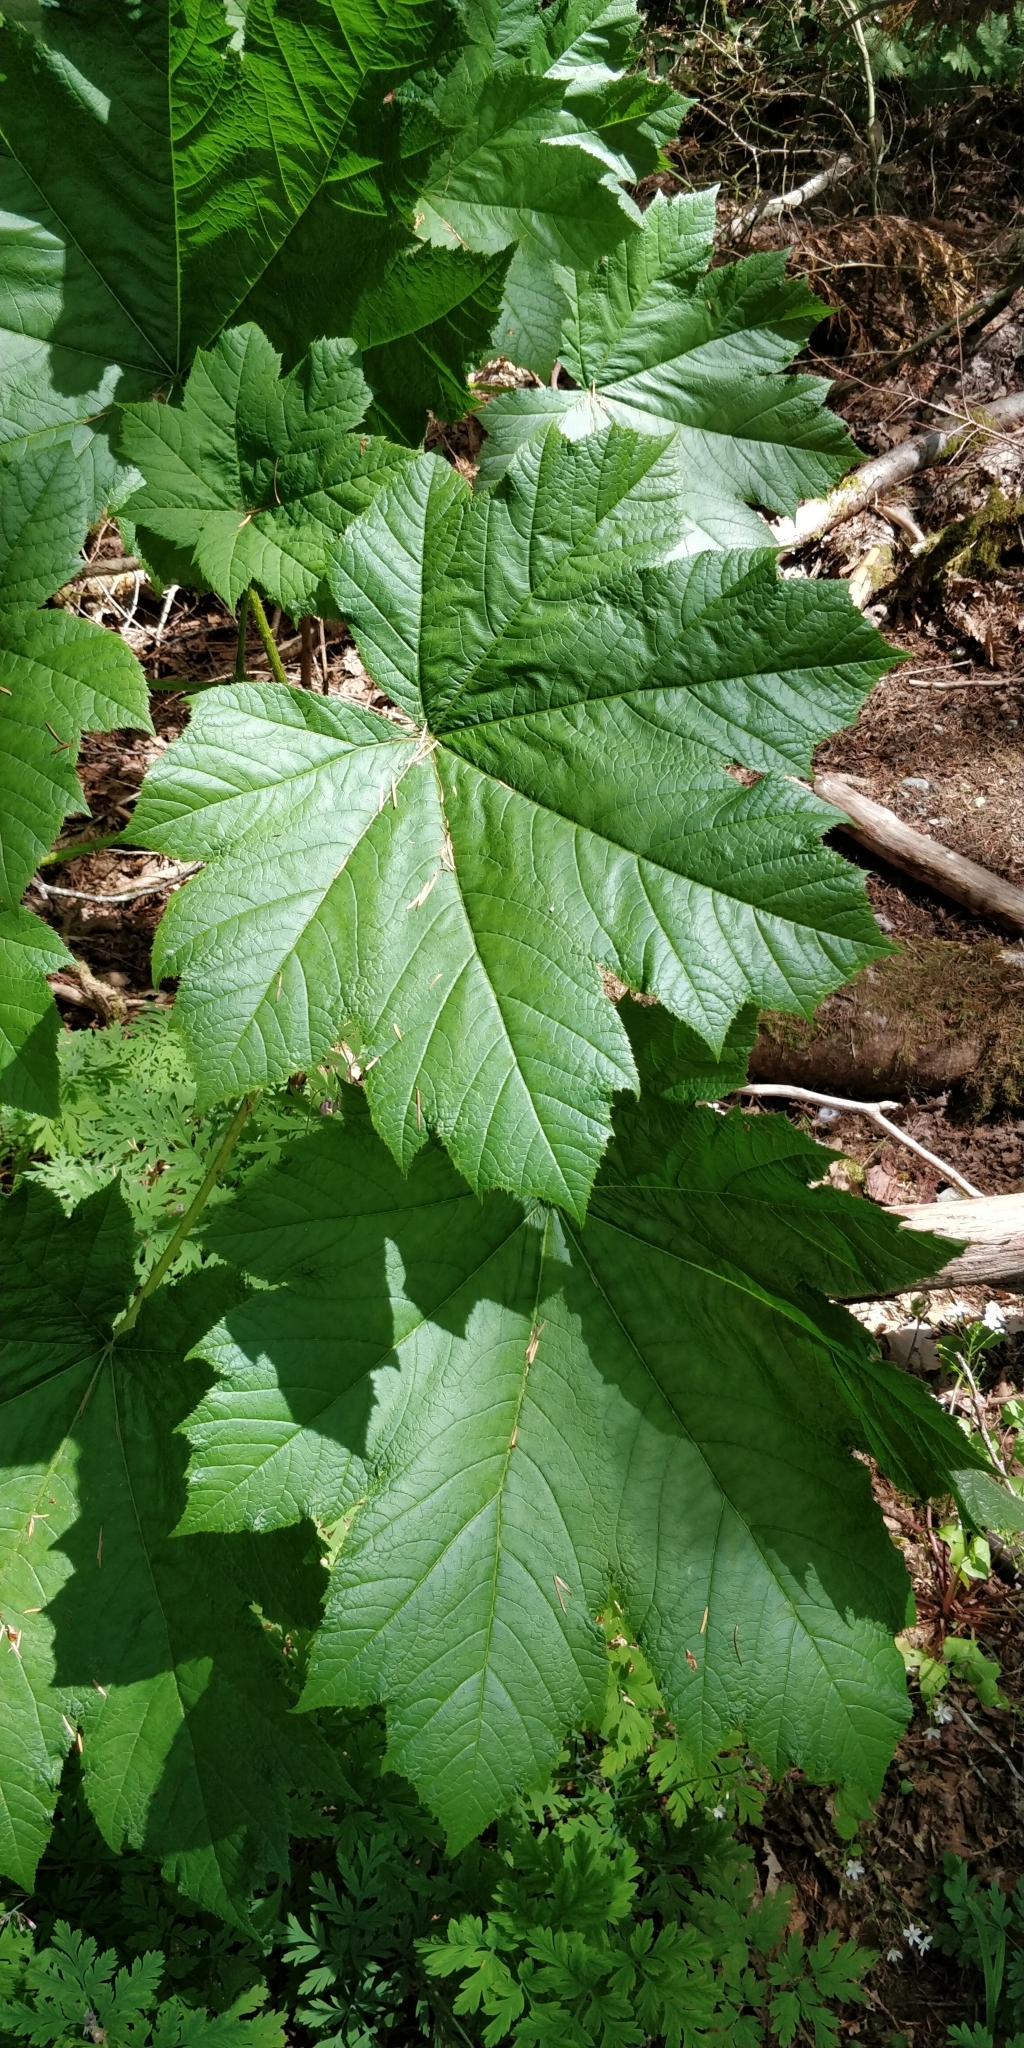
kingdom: Plantae
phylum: Tracheophyta
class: Magnoliopsida
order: Apiales
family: Araliaceae
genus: Oplopanax
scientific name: Oplopanax horridus
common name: Devil's walking-stick
